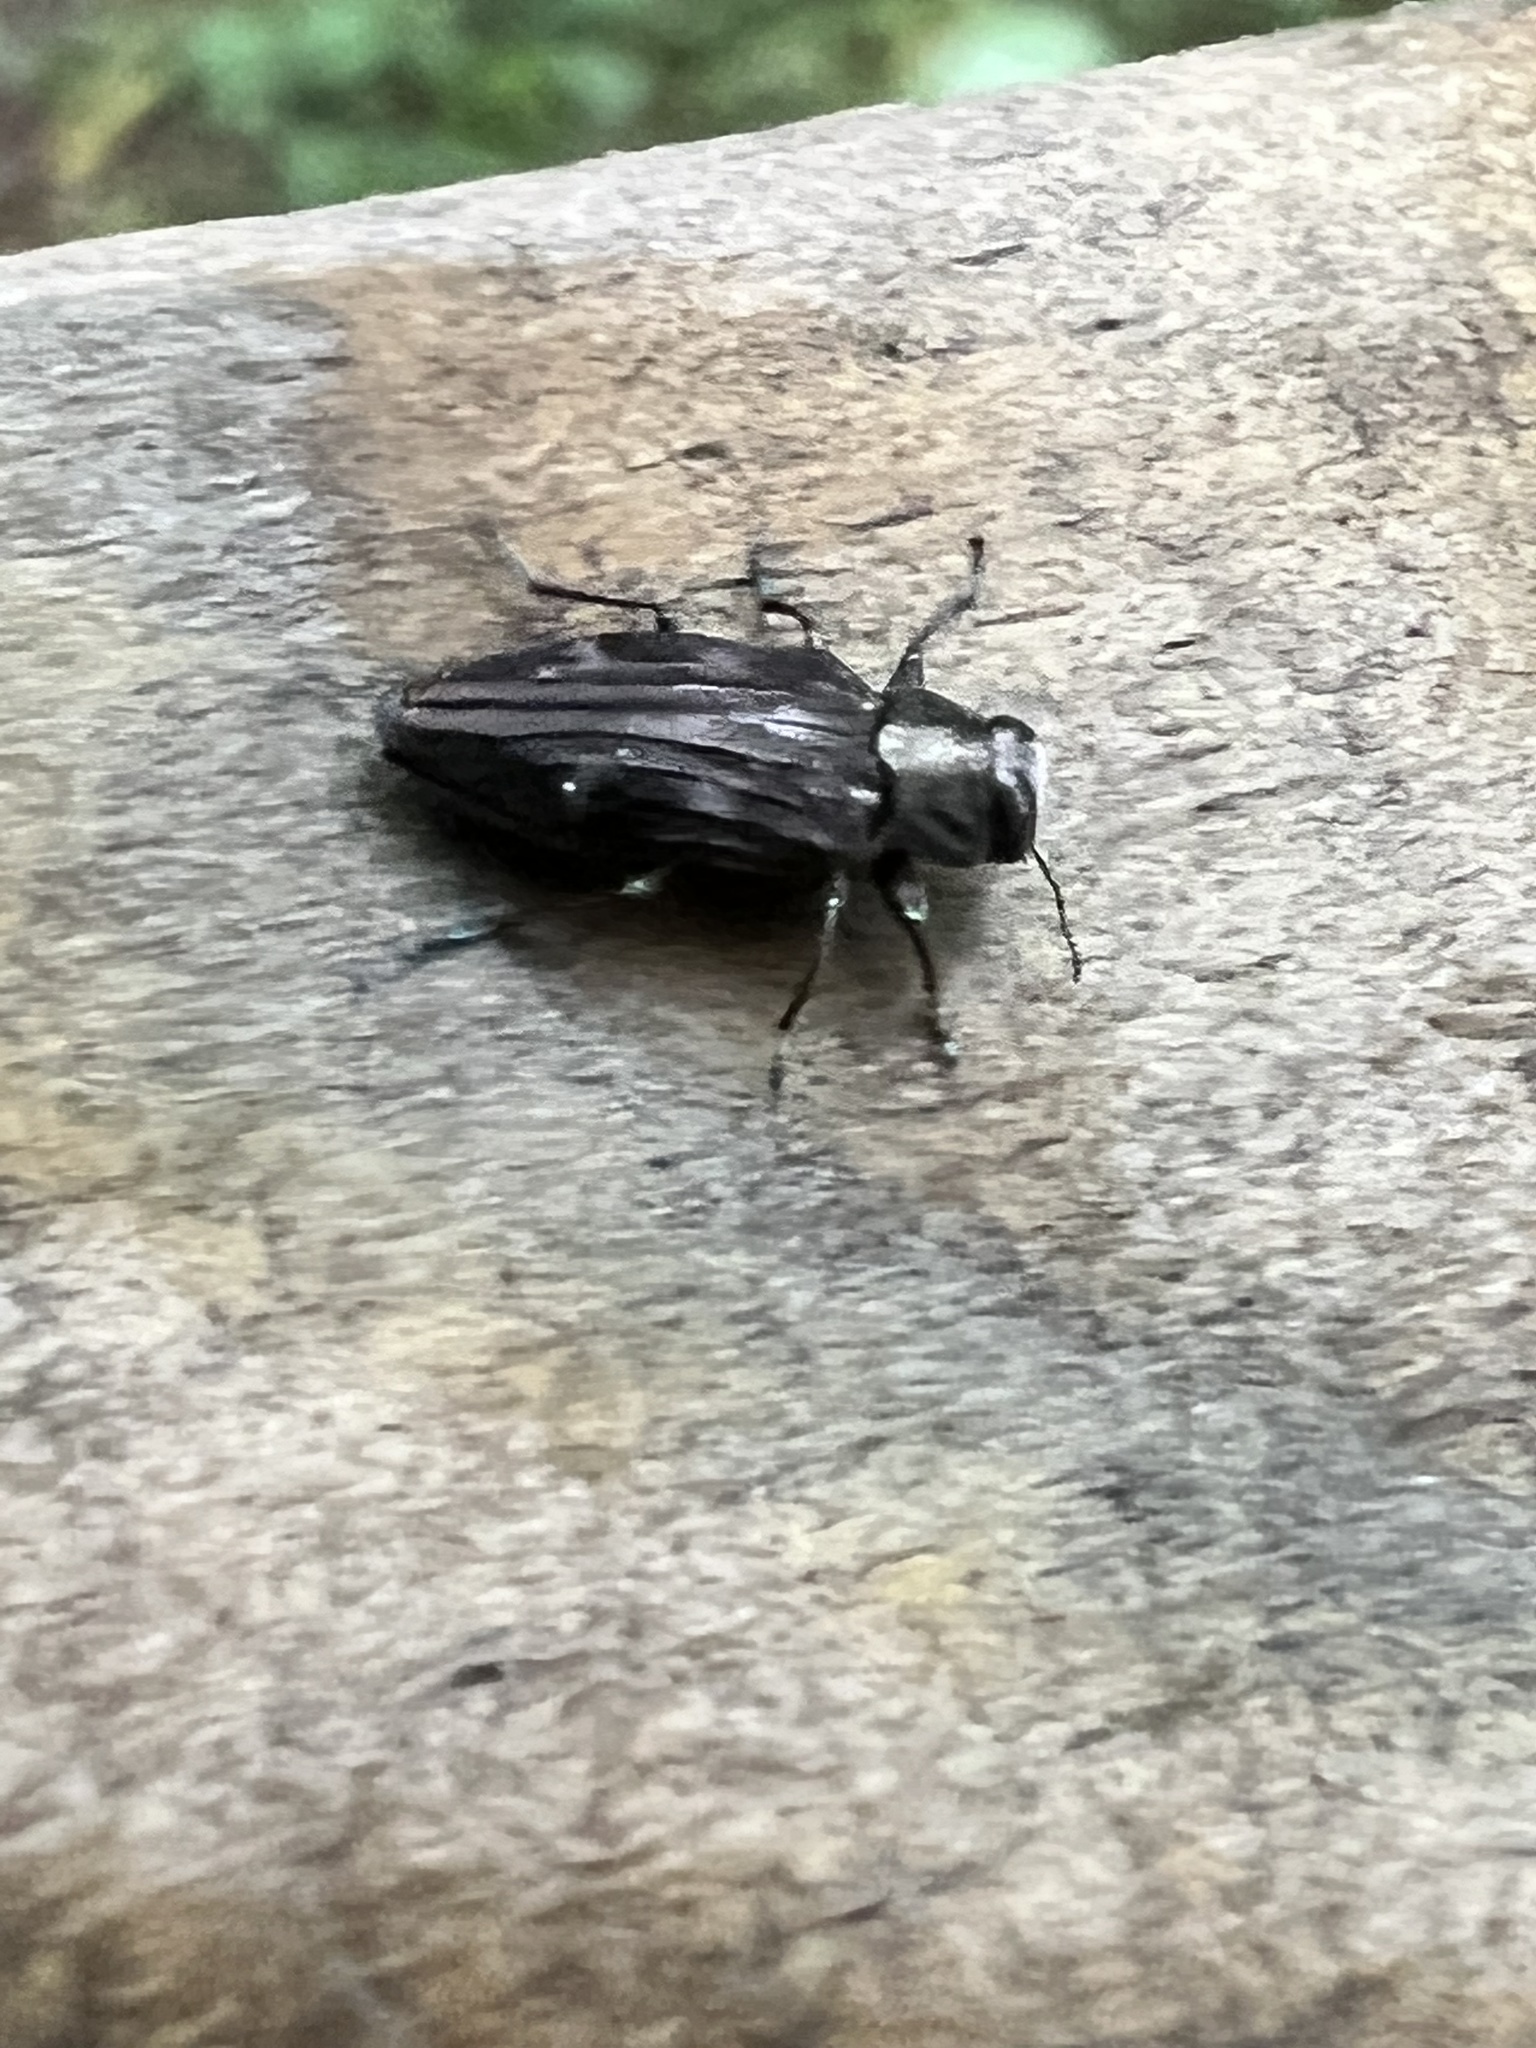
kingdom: Animalia
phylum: Arthropoda
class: Insecta
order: Coleoptera
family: Buprestidae
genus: Chrysobothris
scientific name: Chrysobothris sexsignata
